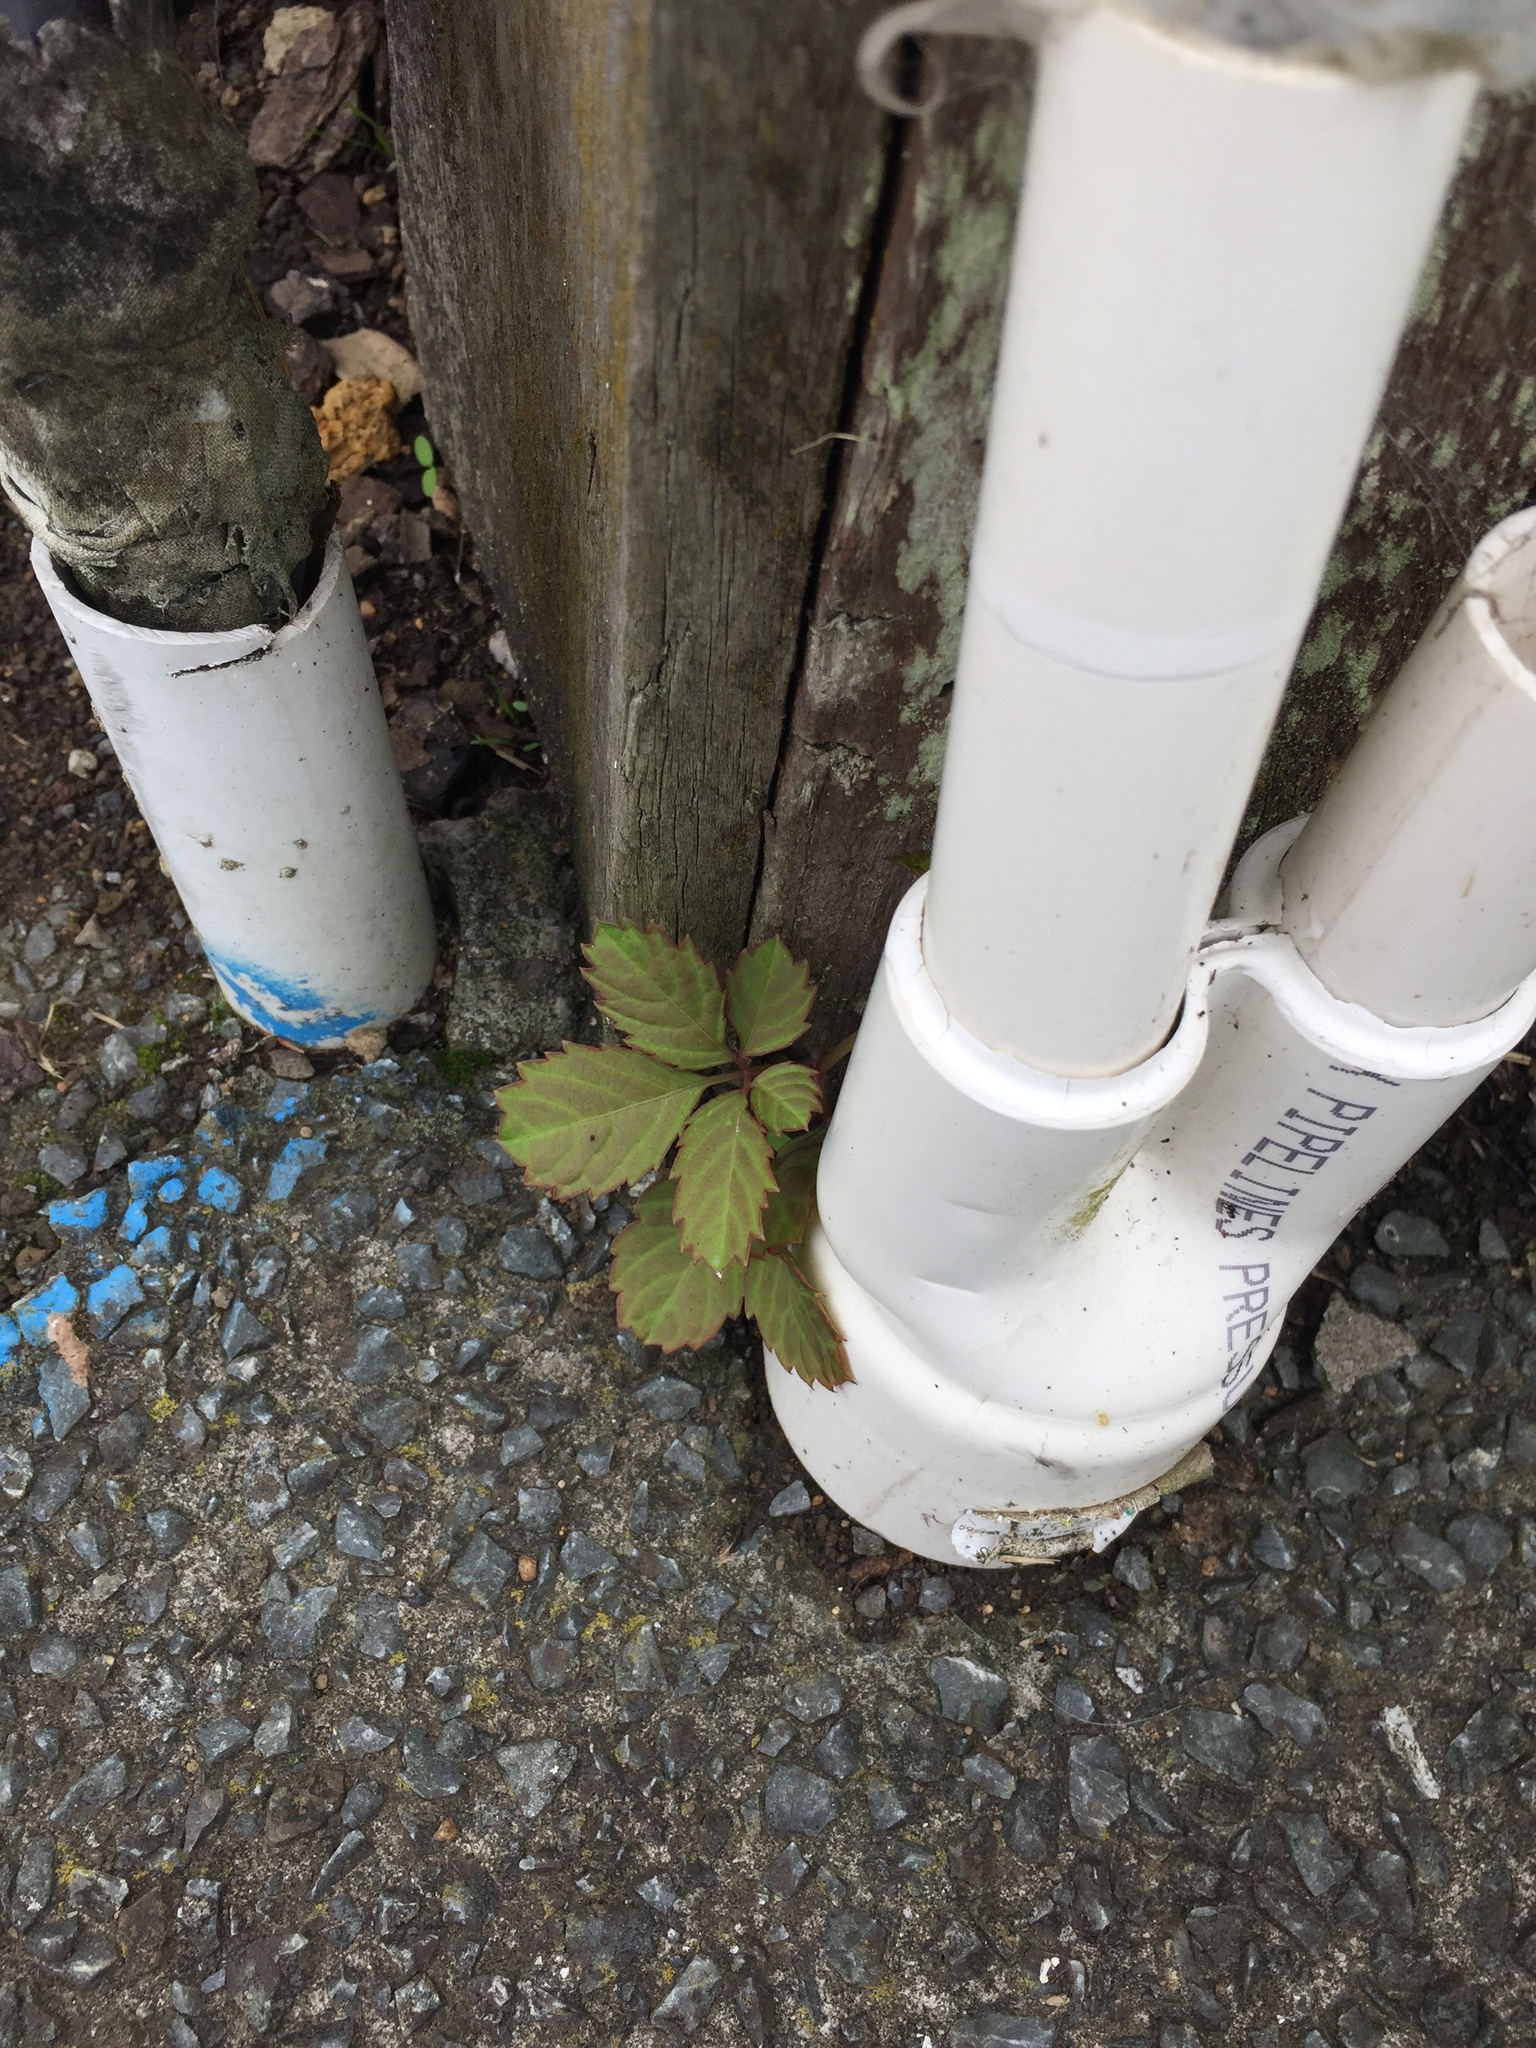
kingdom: Plantae
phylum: Tracheophyta
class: Magnoliopsida
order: Vitales
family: Vitaceae
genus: Causonis
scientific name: Causonis japonica
